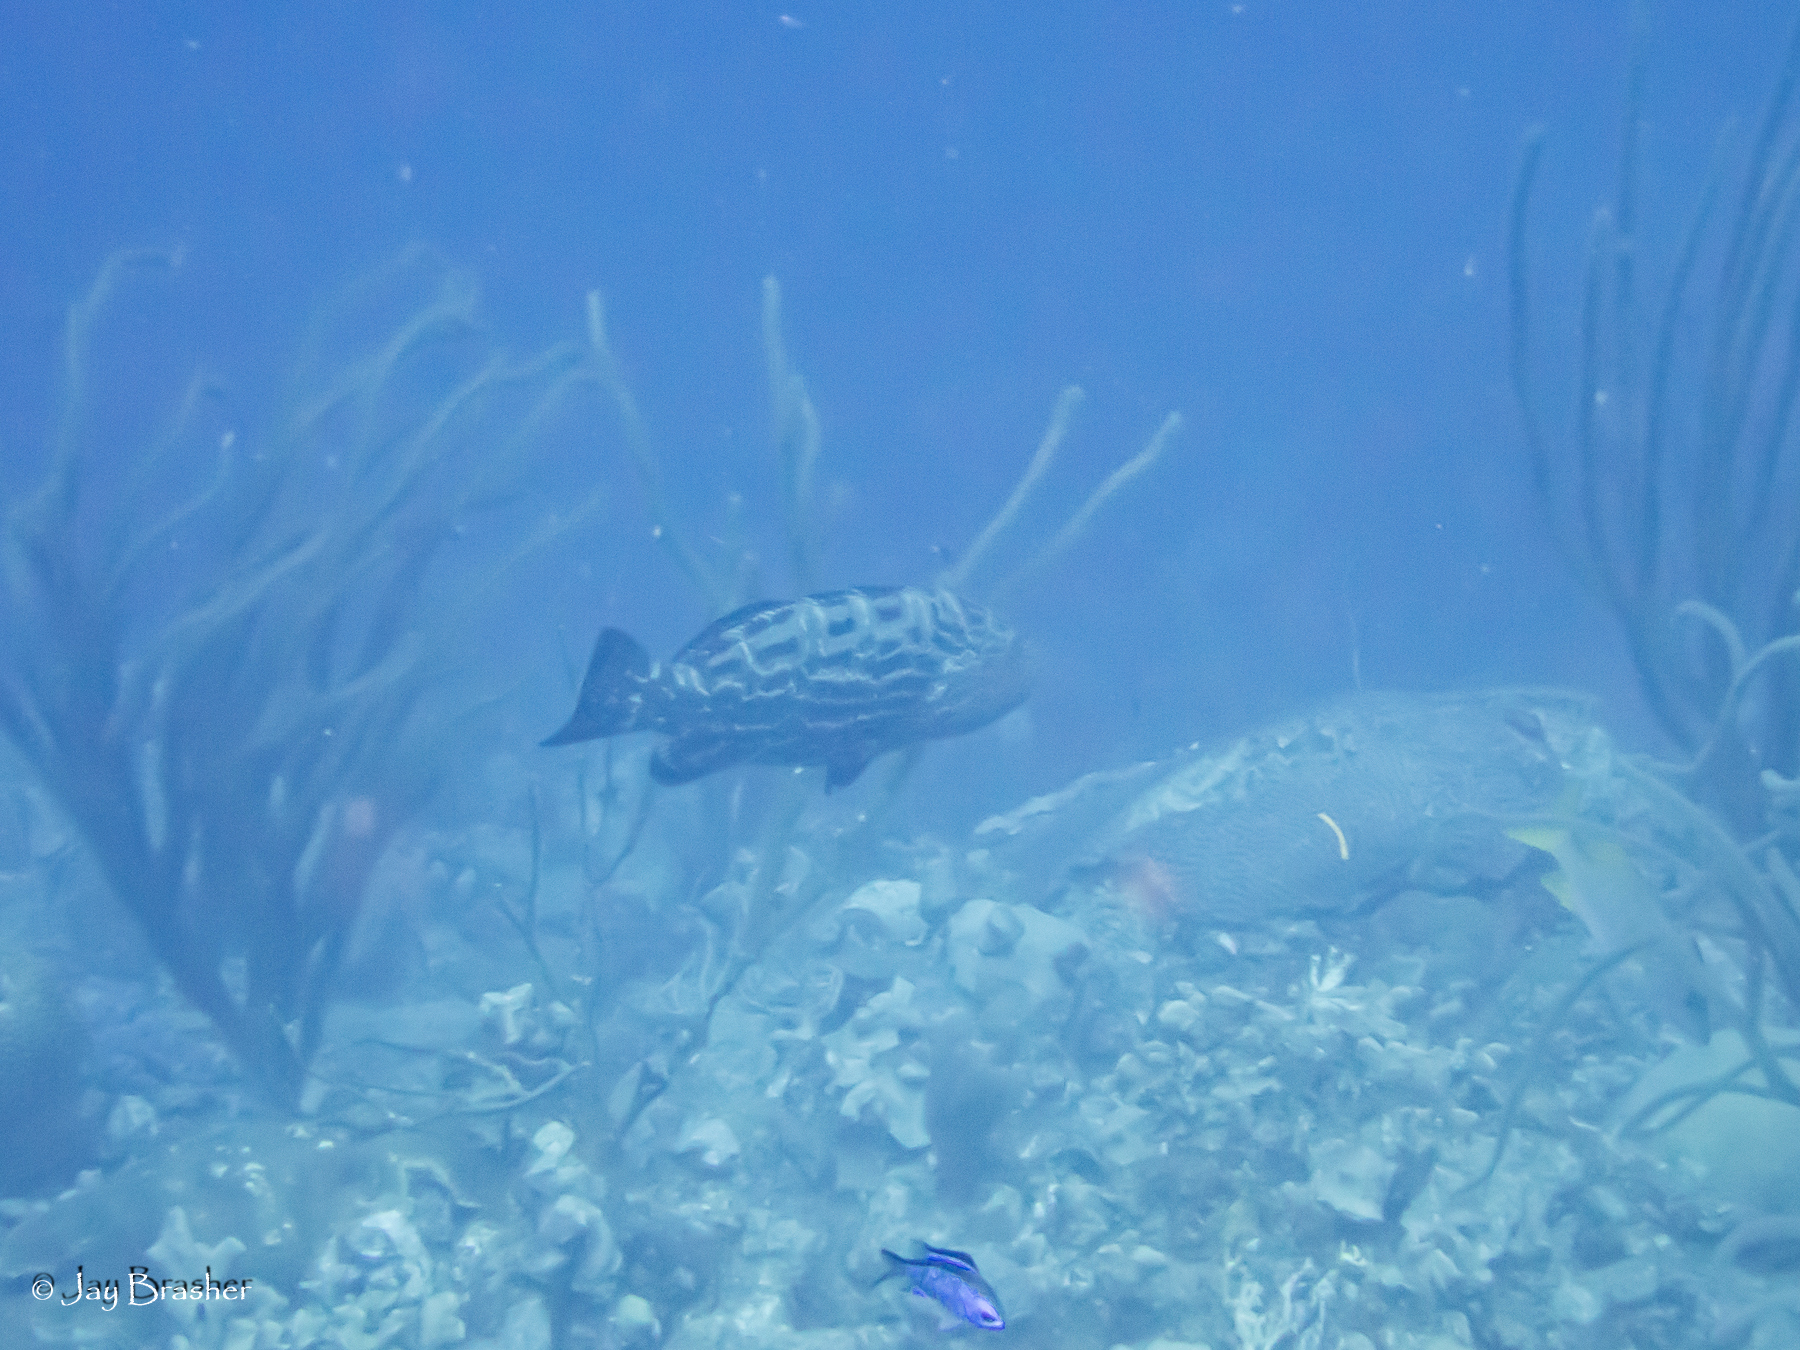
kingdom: Animalia
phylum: Chordata
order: Perciformes
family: Serranidae
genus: Mycteroperca
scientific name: Mycteroperca bonaci
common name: Black grouper
